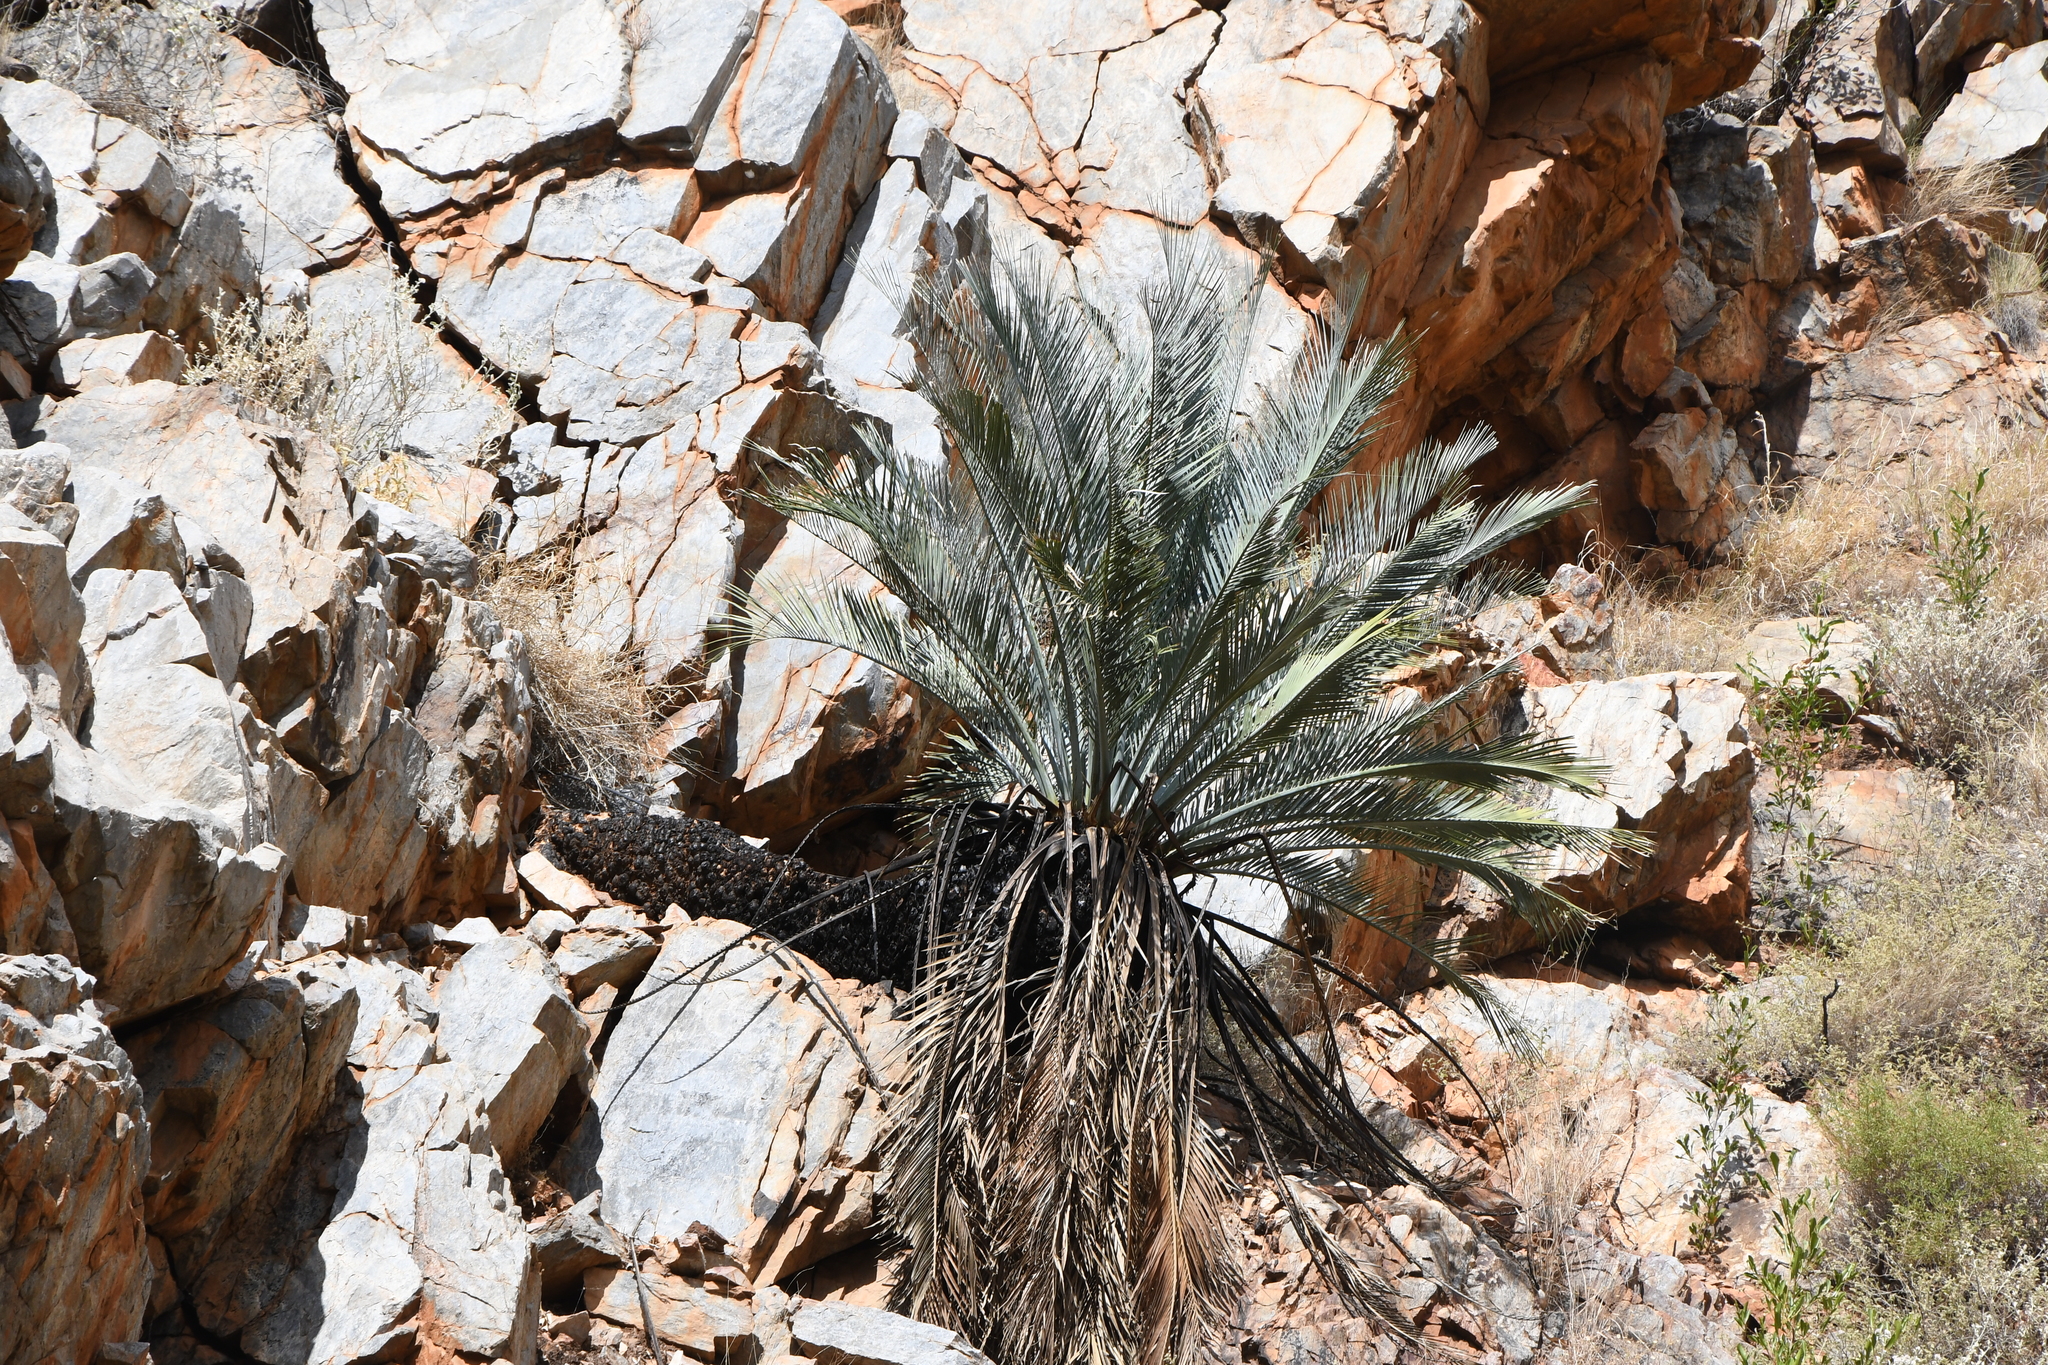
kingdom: Plantae
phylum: Tracheophyta
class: Cycadopsida
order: Cycadales
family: Zamiaceae
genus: Macrozamia
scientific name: Macrozamia macdonnellii
